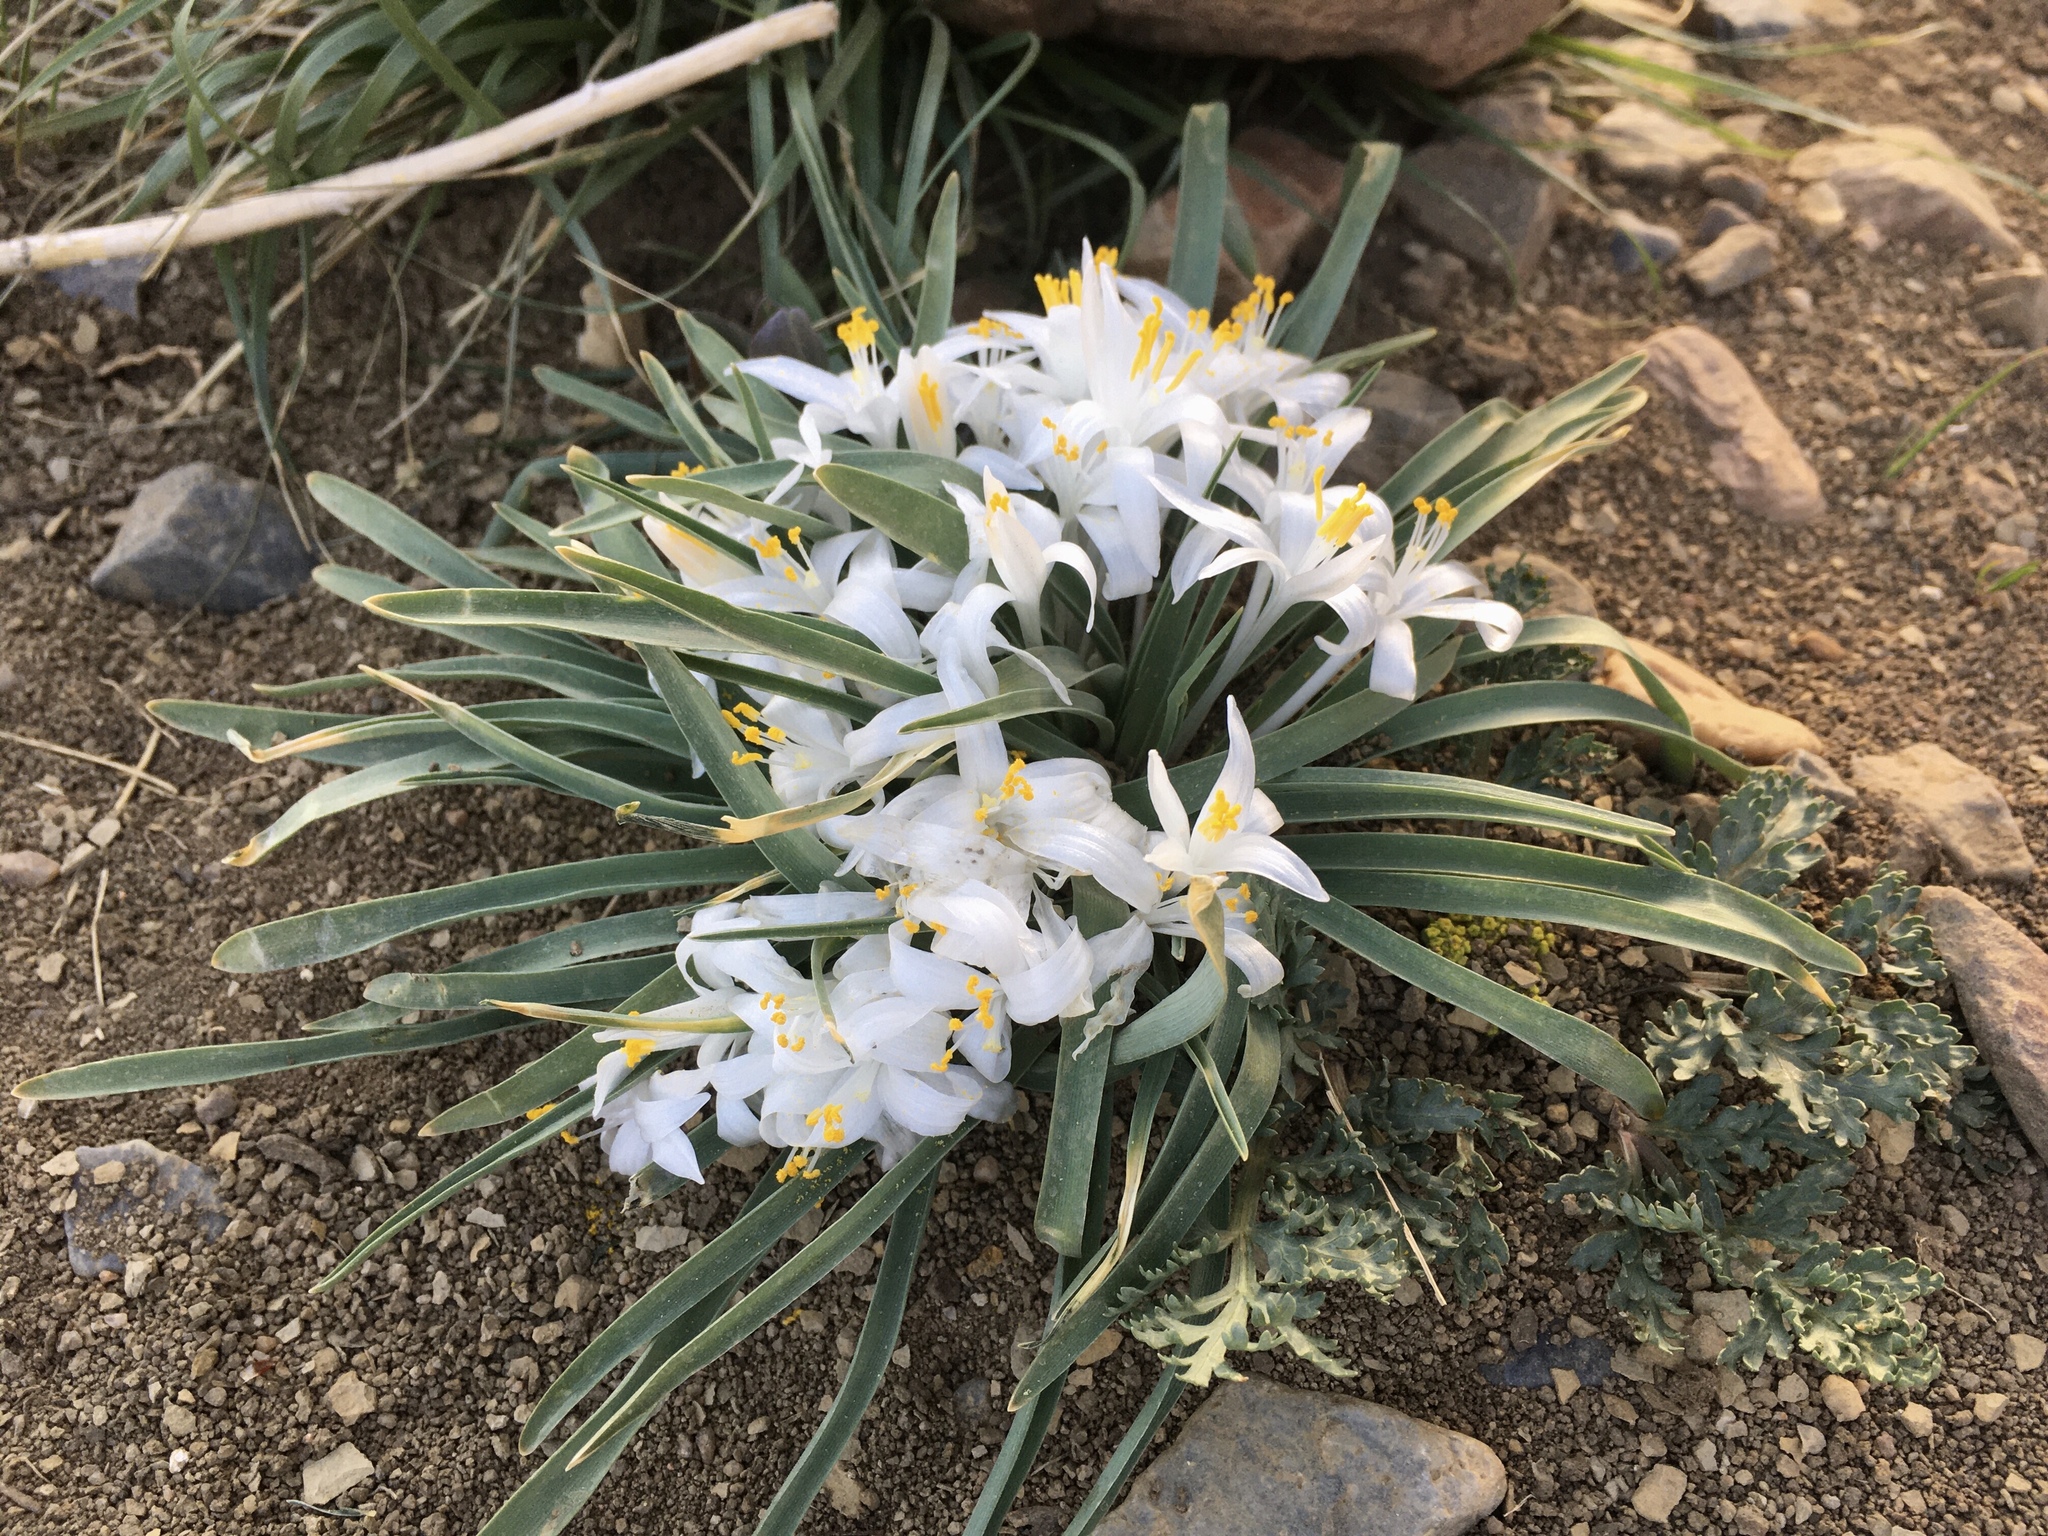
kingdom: Plantae
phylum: Tracheophyta
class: Liliopsida
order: Asparagales
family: Asparagaceae
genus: Leucocrinum
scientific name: Leucocrinum montanum
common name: Mountain-lily
